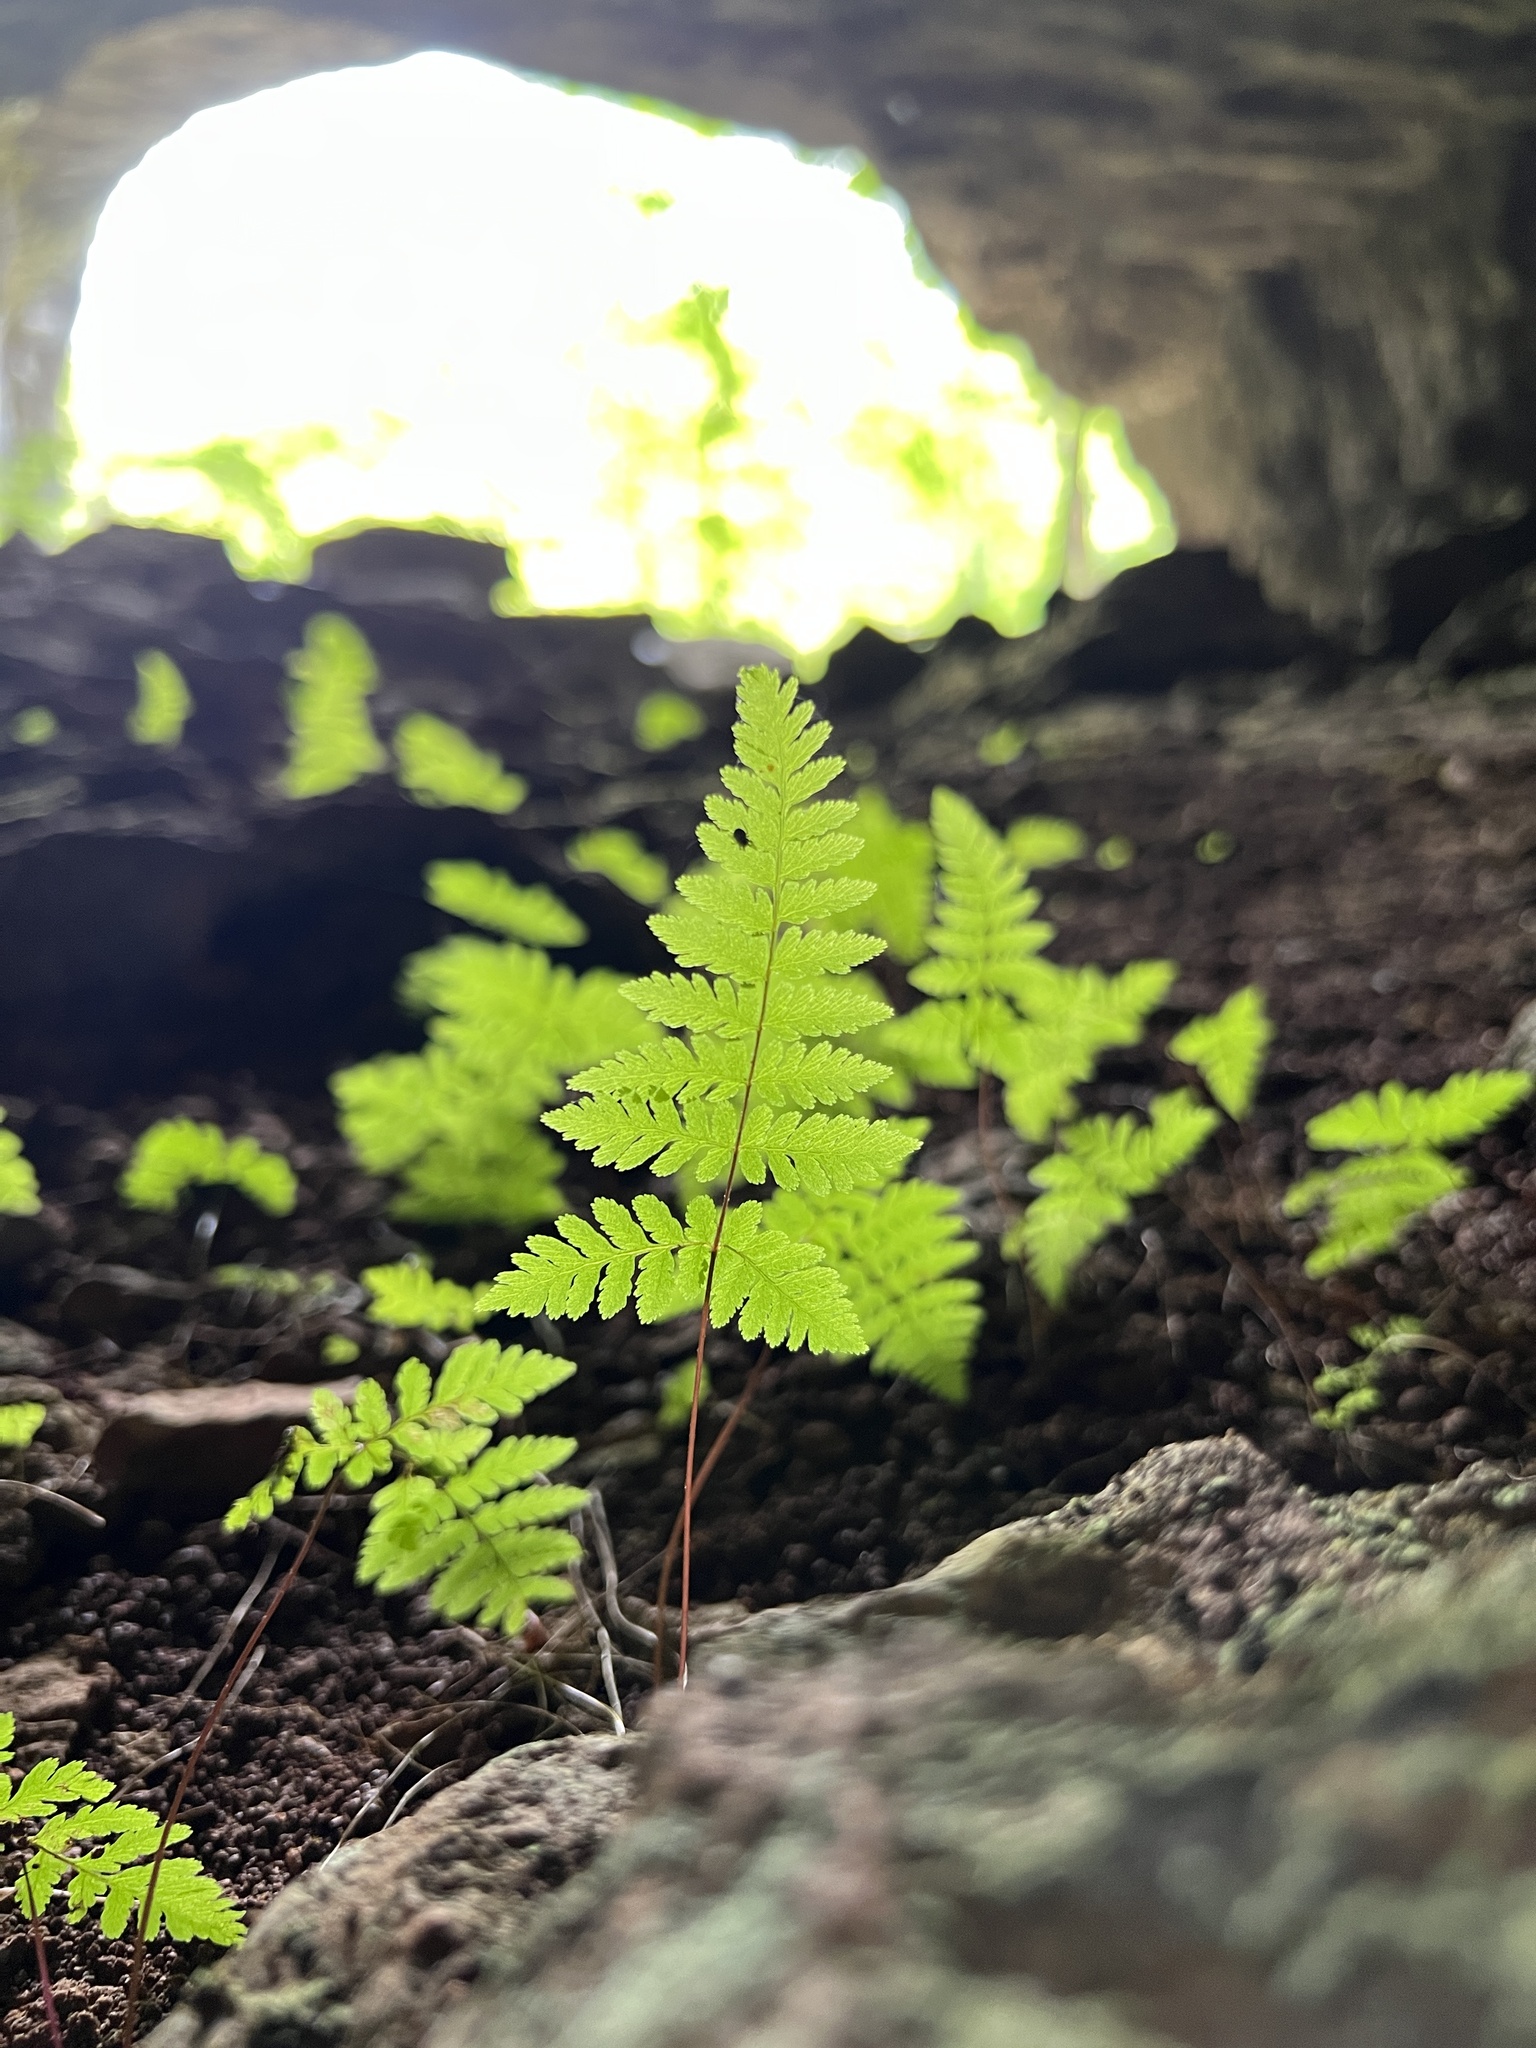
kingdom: Plantae
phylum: Tracheophyta
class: Polypodiopsida
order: Polypodiales
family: Cystopteridaceae
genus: Cystopteris
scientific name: Cystopteris bulbifera
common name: Bulblet bladder fern
